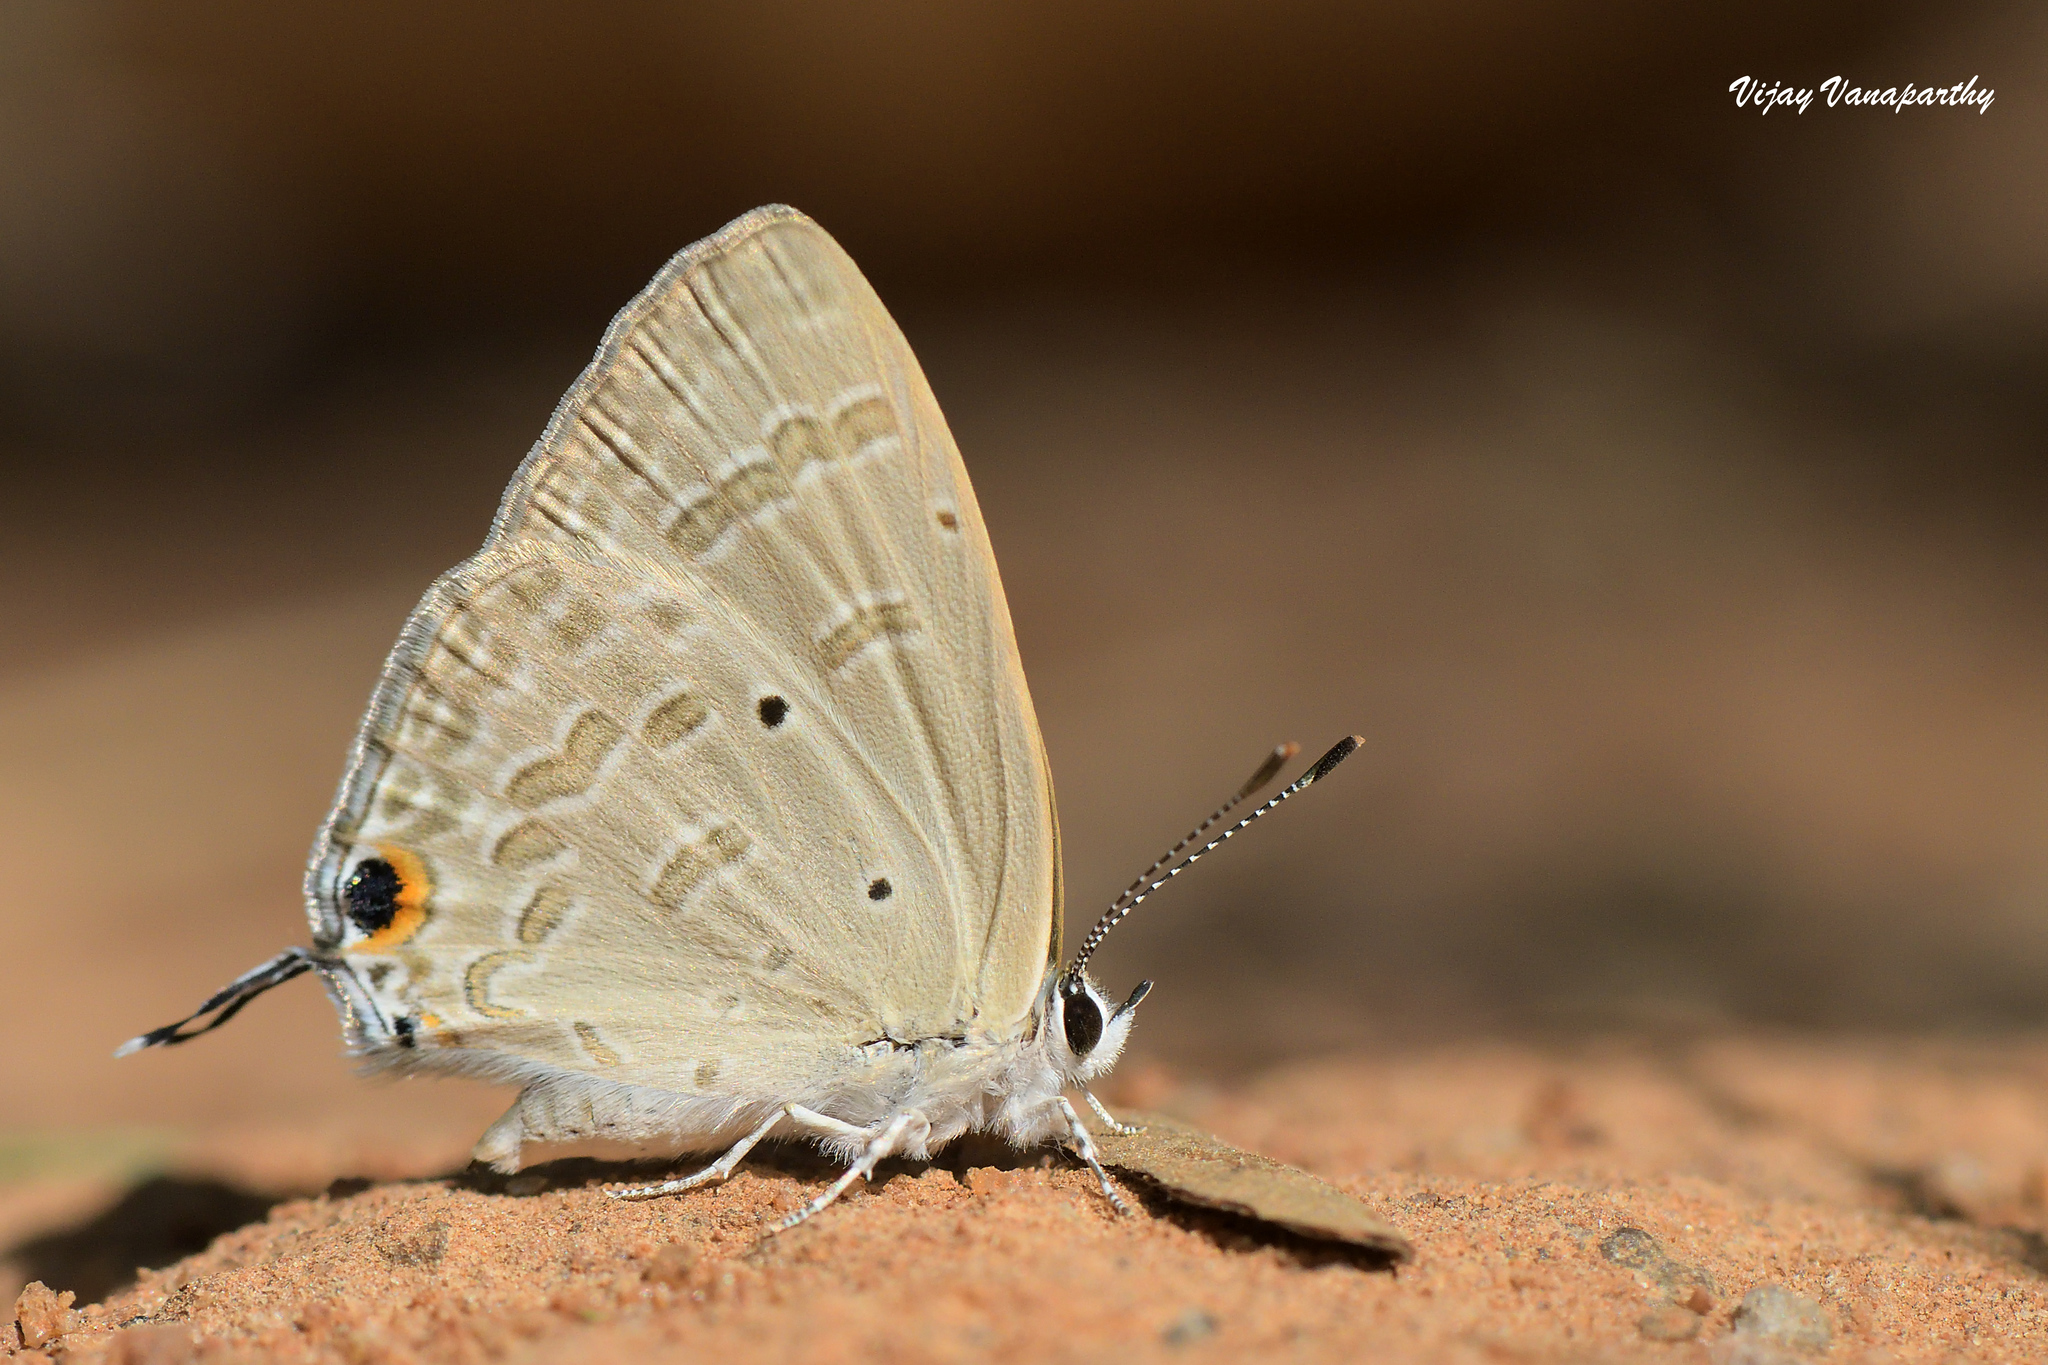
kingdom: Animalia
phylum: Arthropoda
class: Insecta
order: Lepidoptera
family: Lycaenidae
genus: Catochrysops
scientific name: Catochrysops strabo
